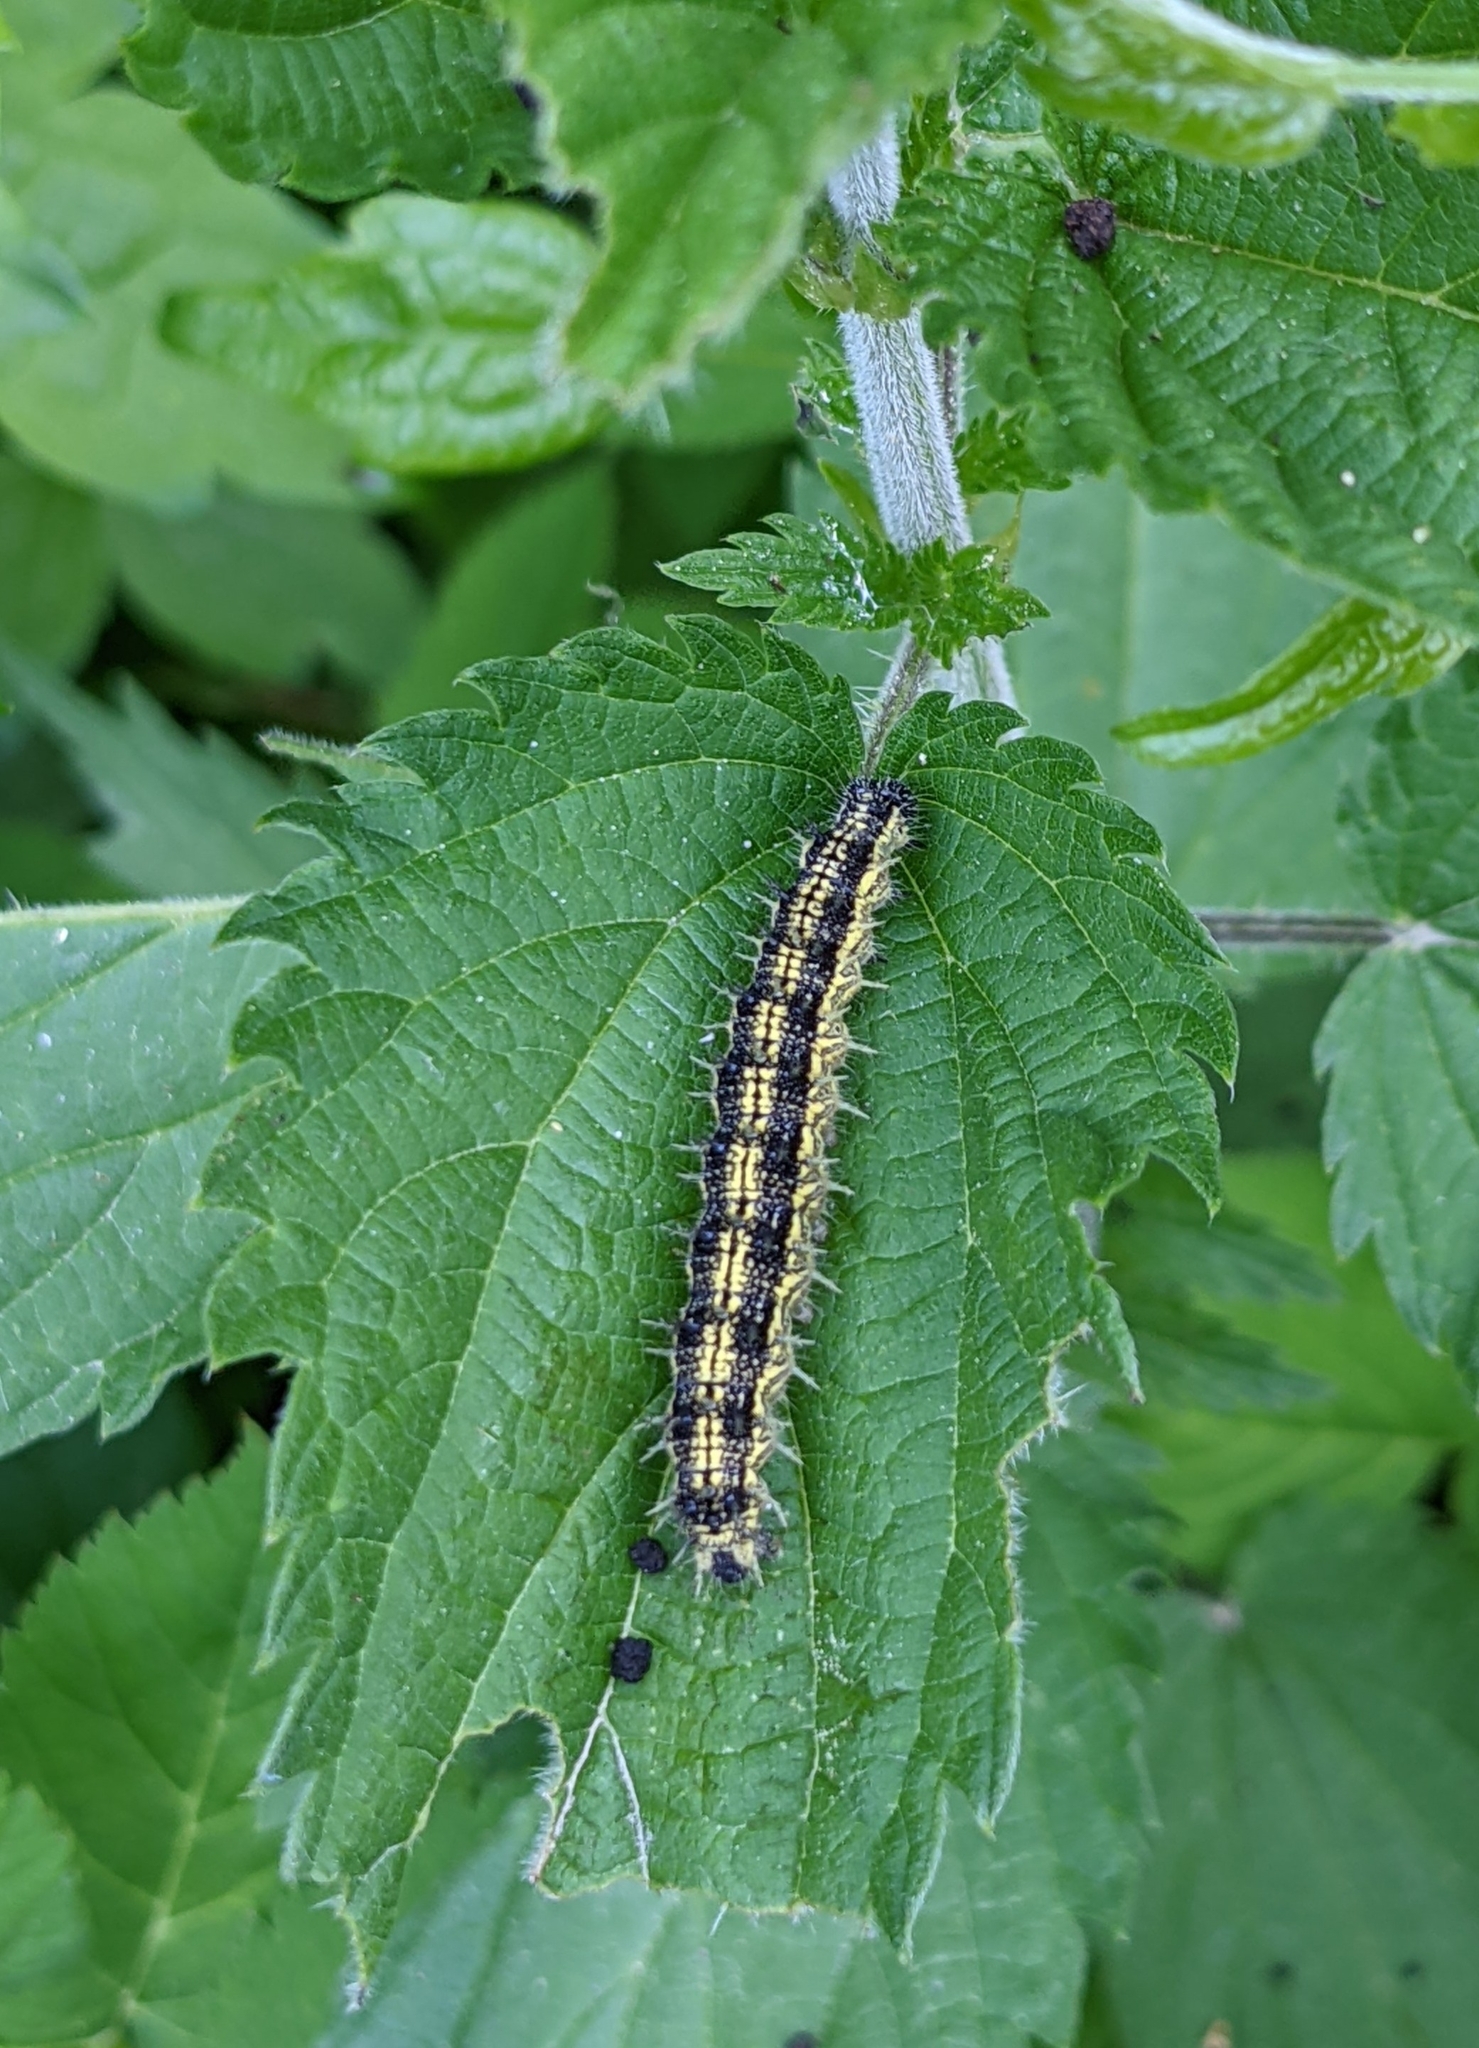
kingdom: Animalia
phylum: Arthropoda
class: Insecta
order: Lepidoptera
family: Nymphalidae
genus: Aglais
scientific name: Aglais urticae
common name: Small tortoiseshell
